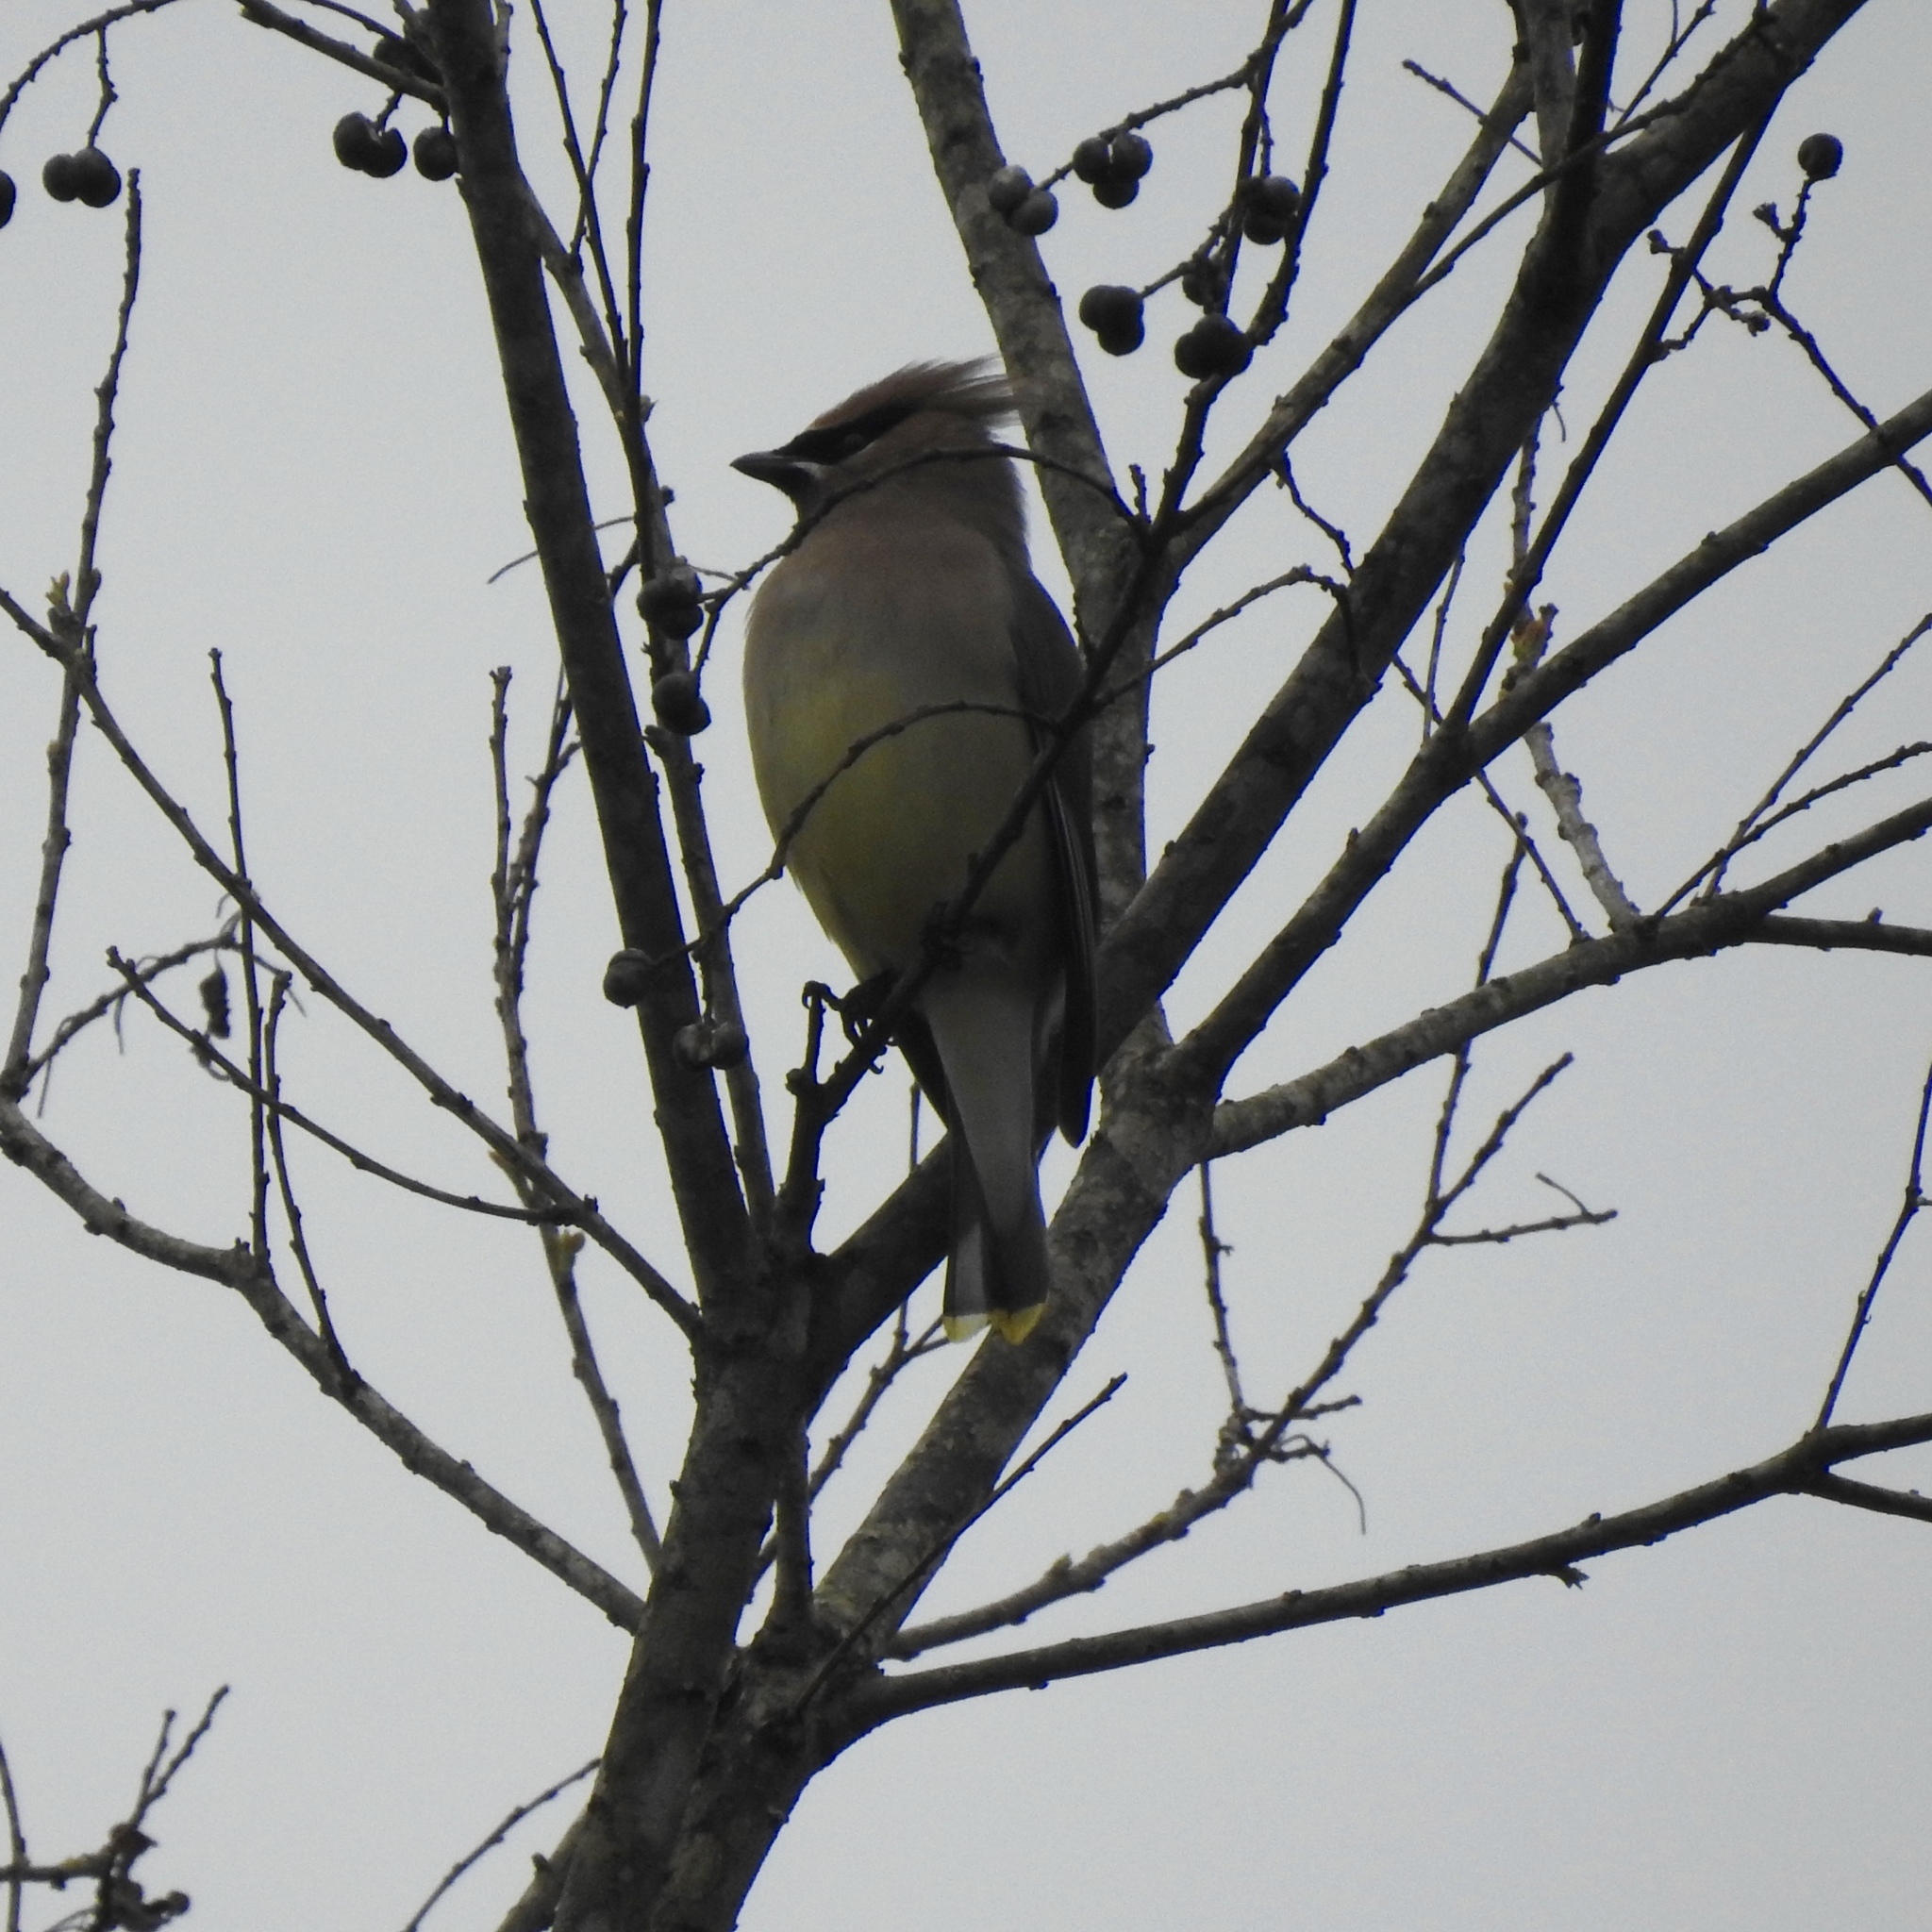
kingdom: Animalia
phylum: Chordata
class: Aves
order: Passeriformes
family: Bombycillidae
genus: Bombycilla
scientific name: Bombycilla cedrorum
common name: Cedar waxwing
